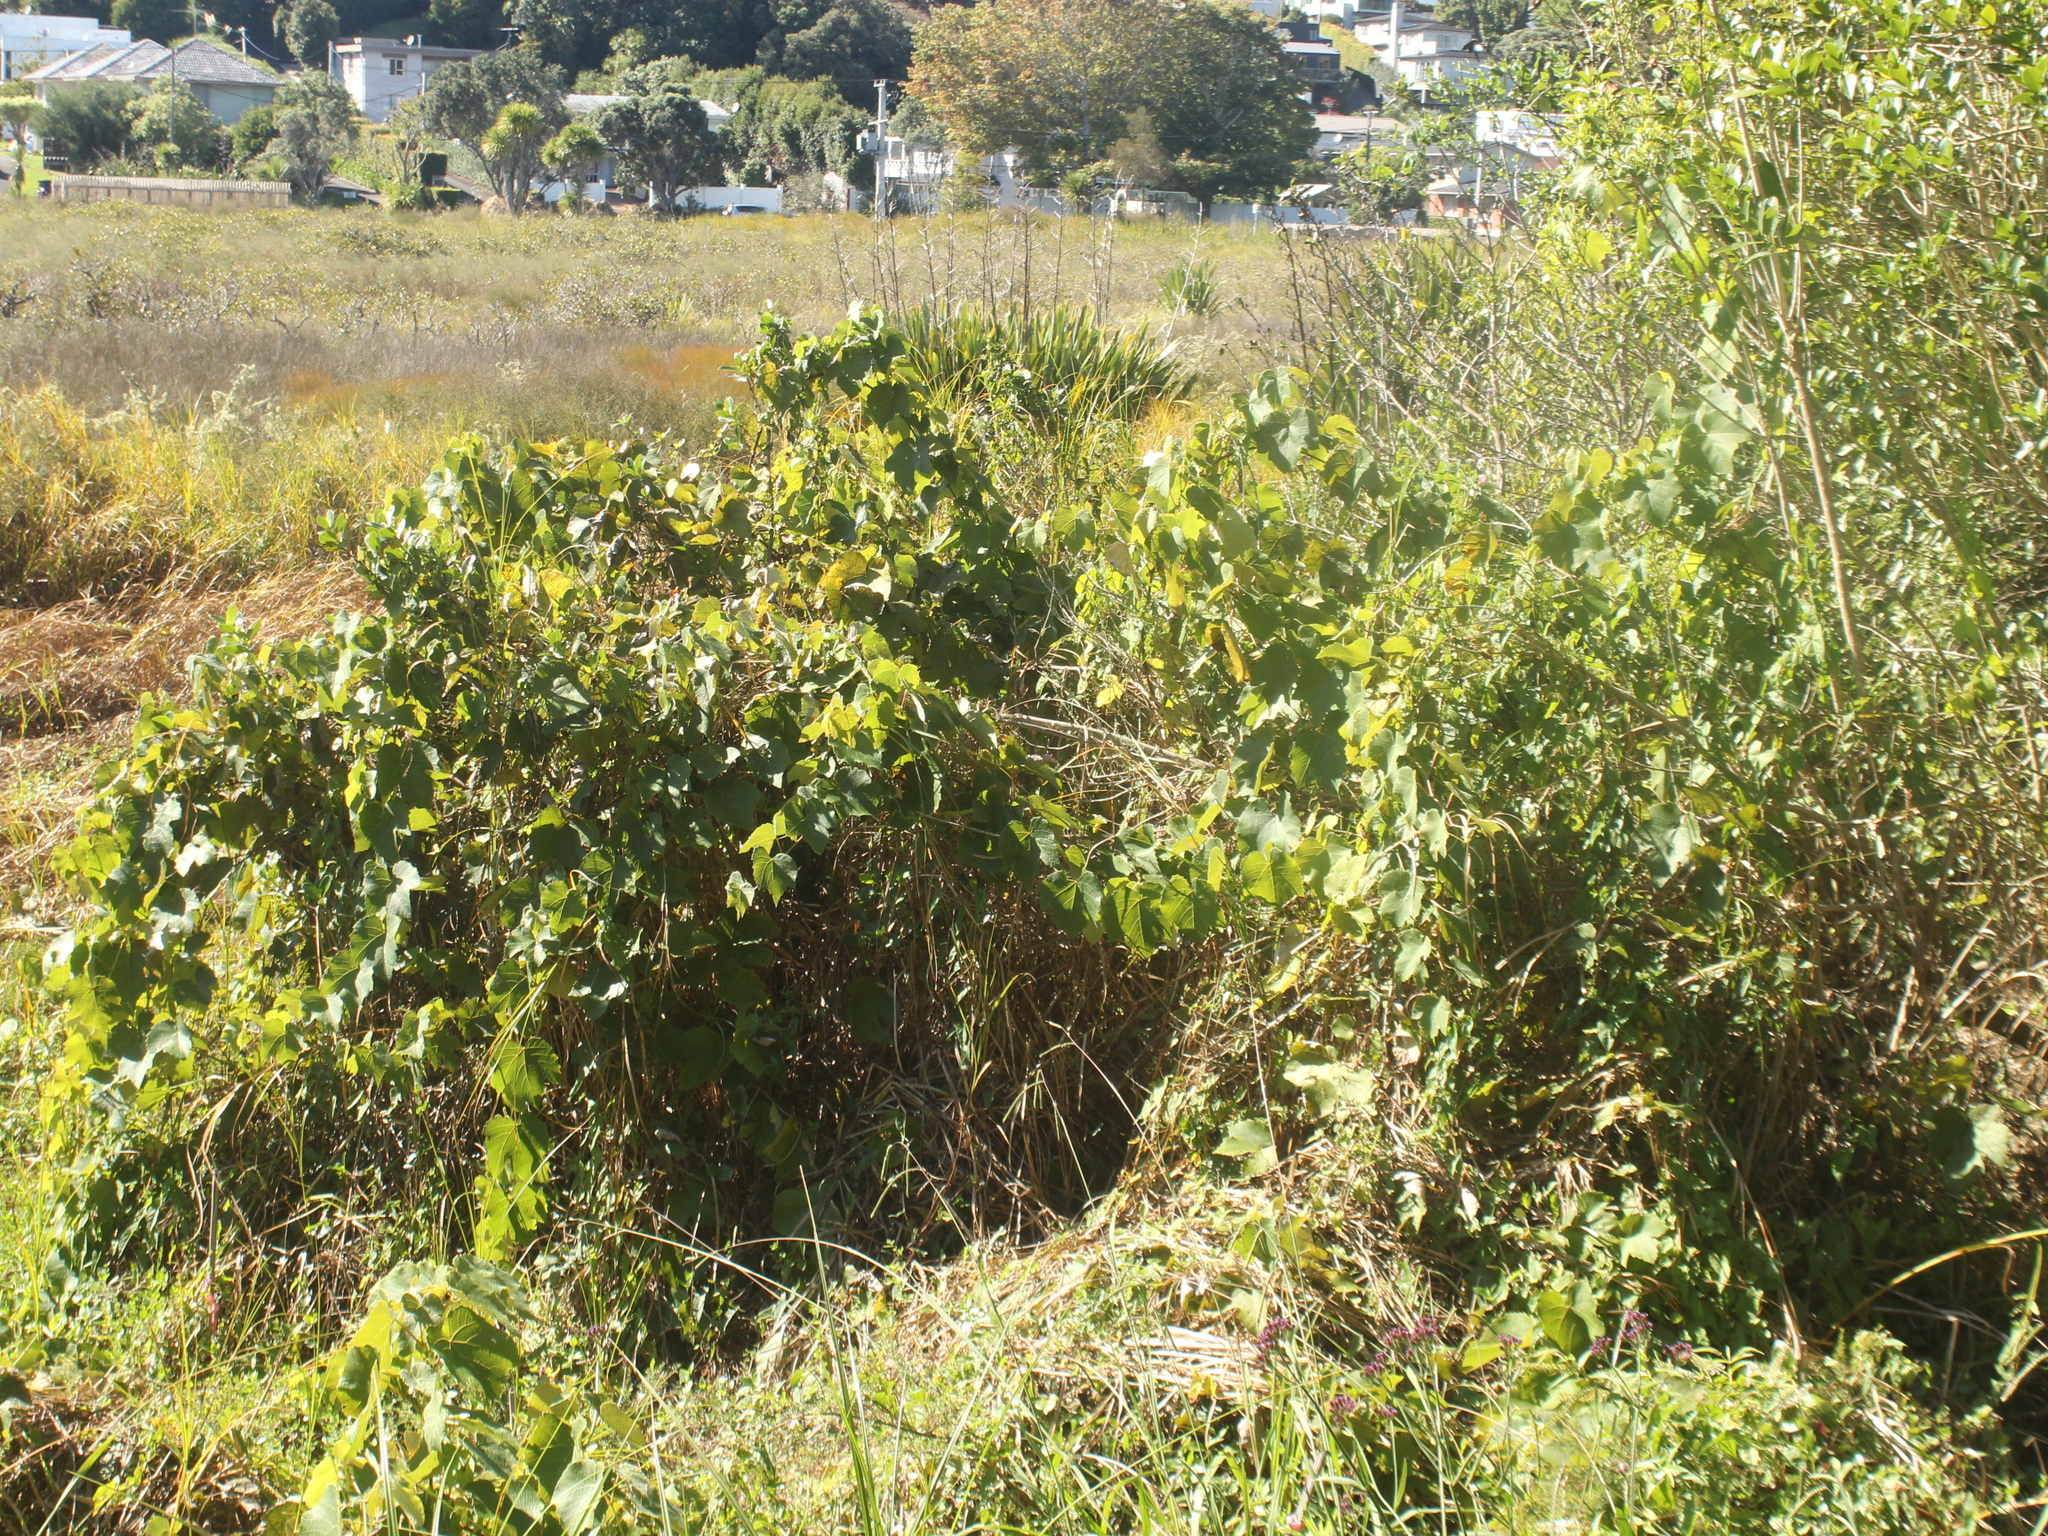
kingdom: Plantae
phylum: Tracheophyta
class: Magnoliopsida
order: Vitales
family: Vitaceae
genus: Vitis
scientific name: Vitis vinifera
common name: Grape-vine
